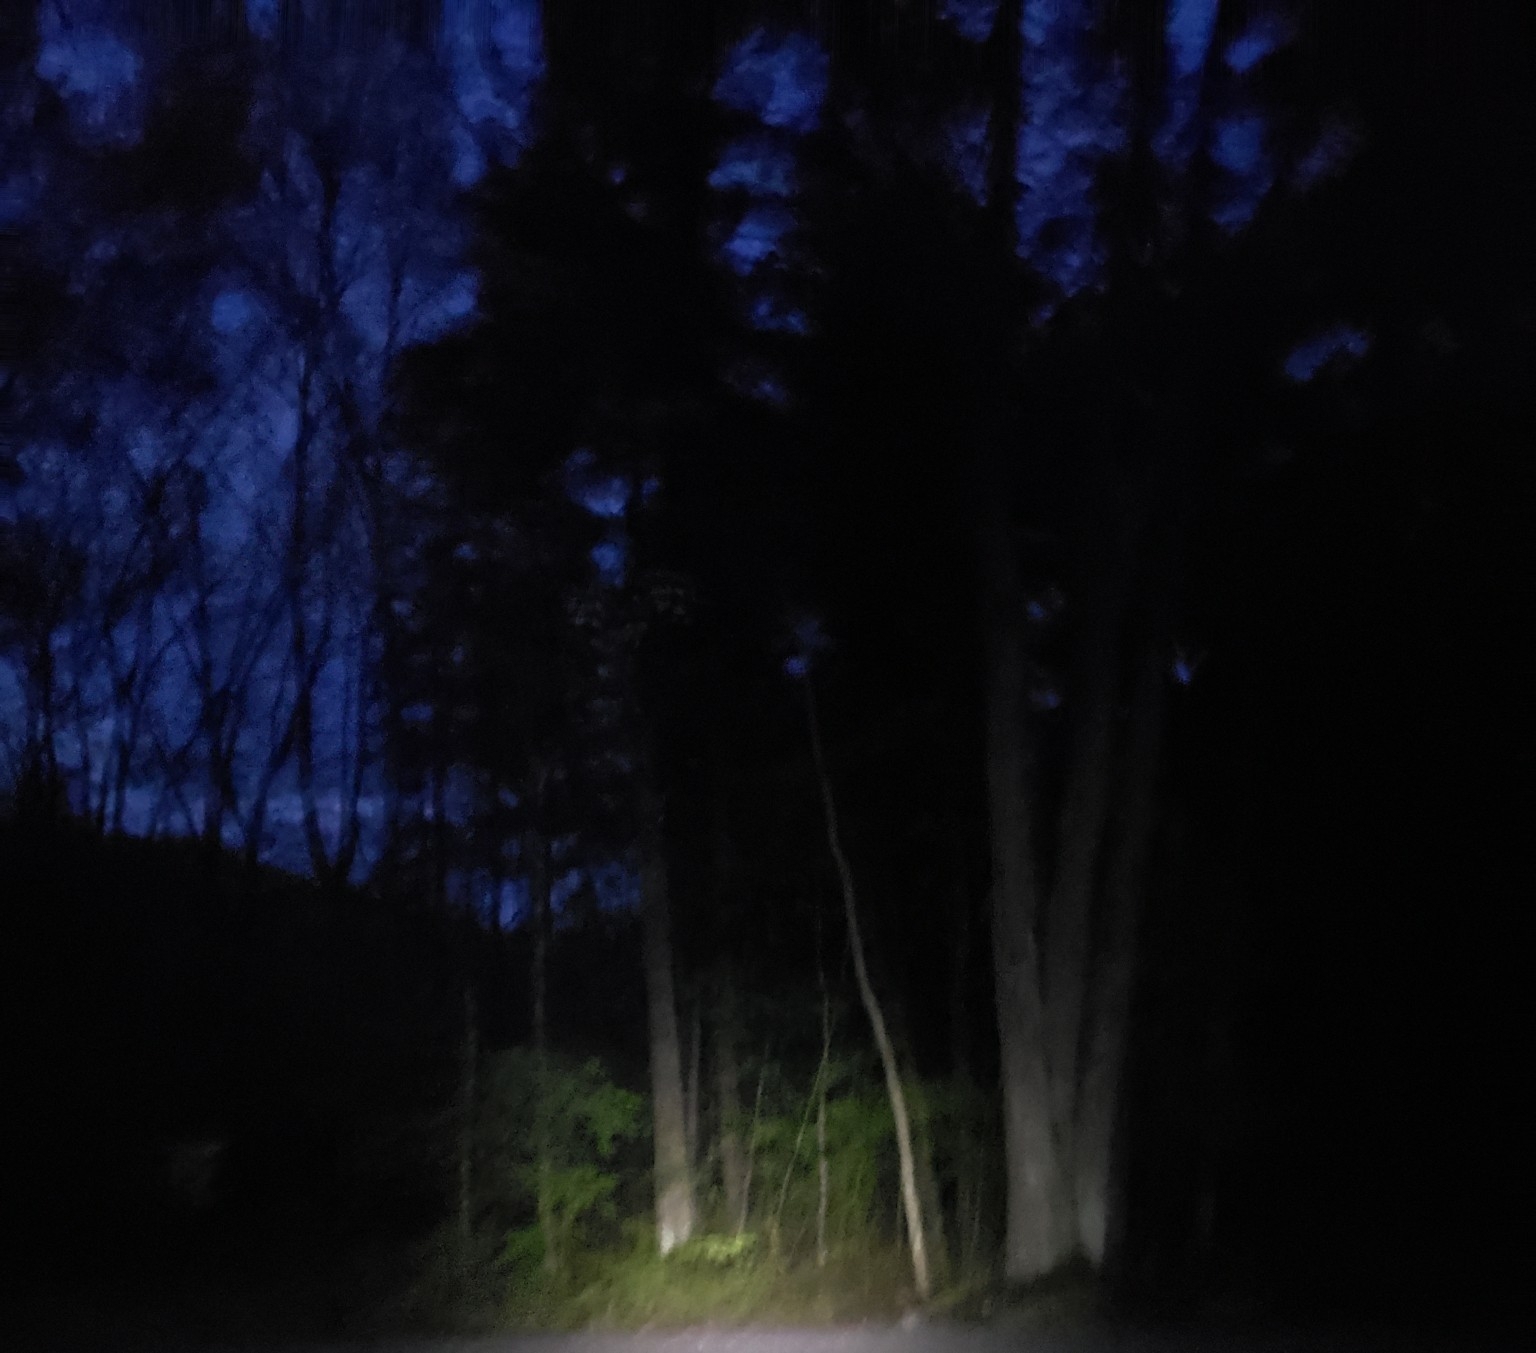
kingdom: Animalia
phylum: Chordata
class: Aves
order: Charadriiformes
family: Scolopacidae
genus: Scolopax
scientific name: Scolopax minor
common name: American woodcock
